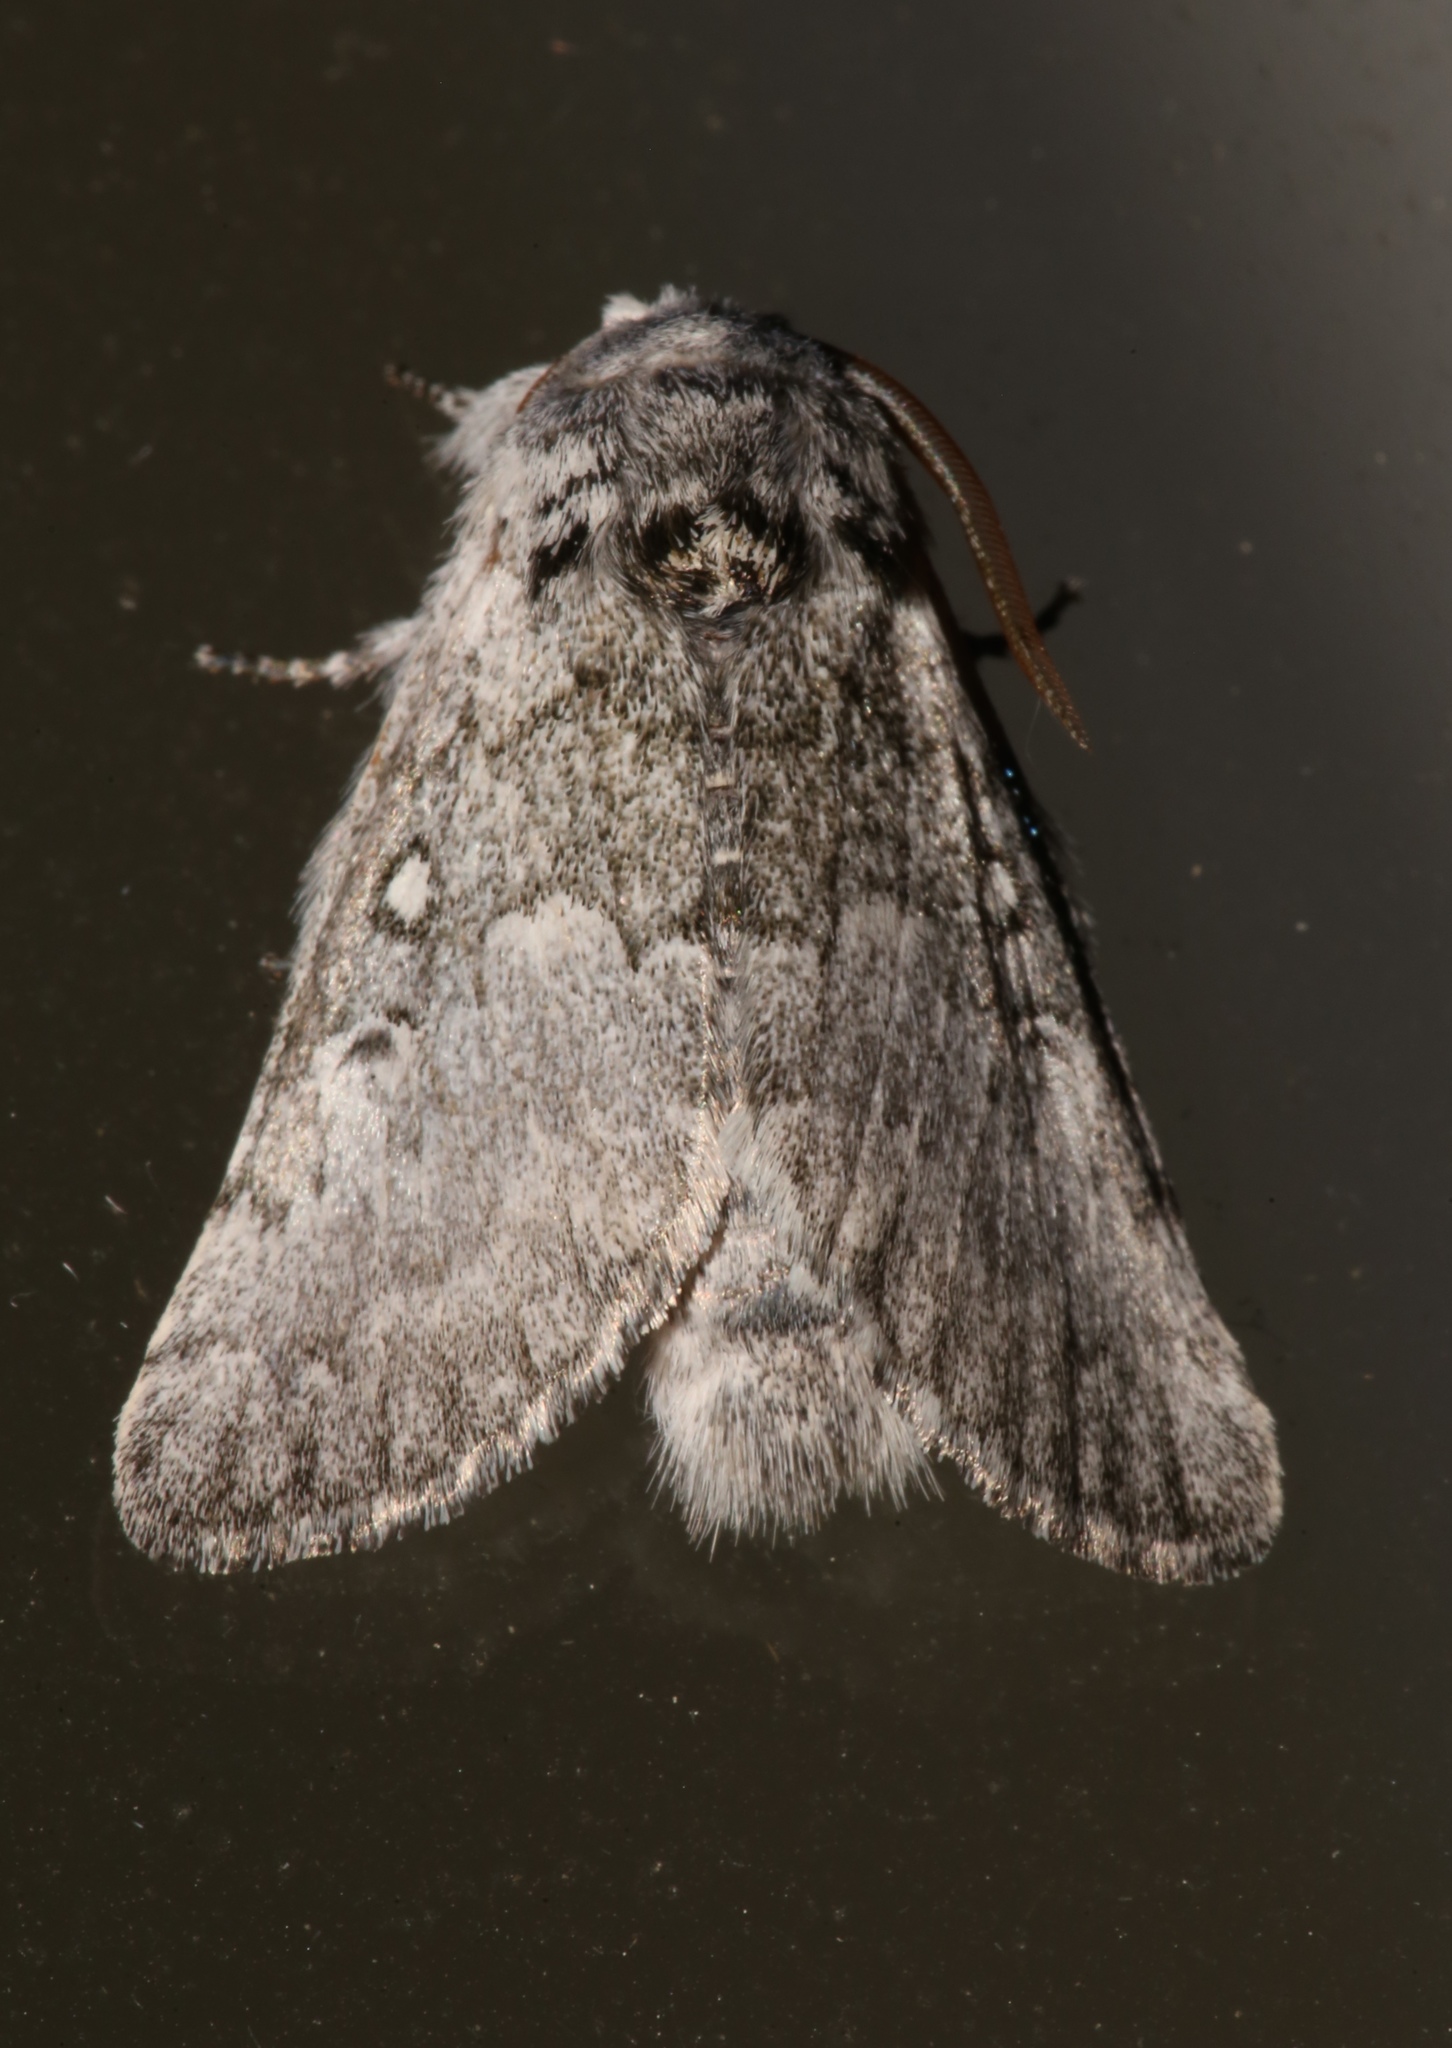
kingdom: Animalia
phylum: Arthropoda
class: Insecta
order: Lepidoptera
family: Noctuidae
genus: Colocasia
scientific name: Colocasia propinquilinea
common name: Close-banded demas
